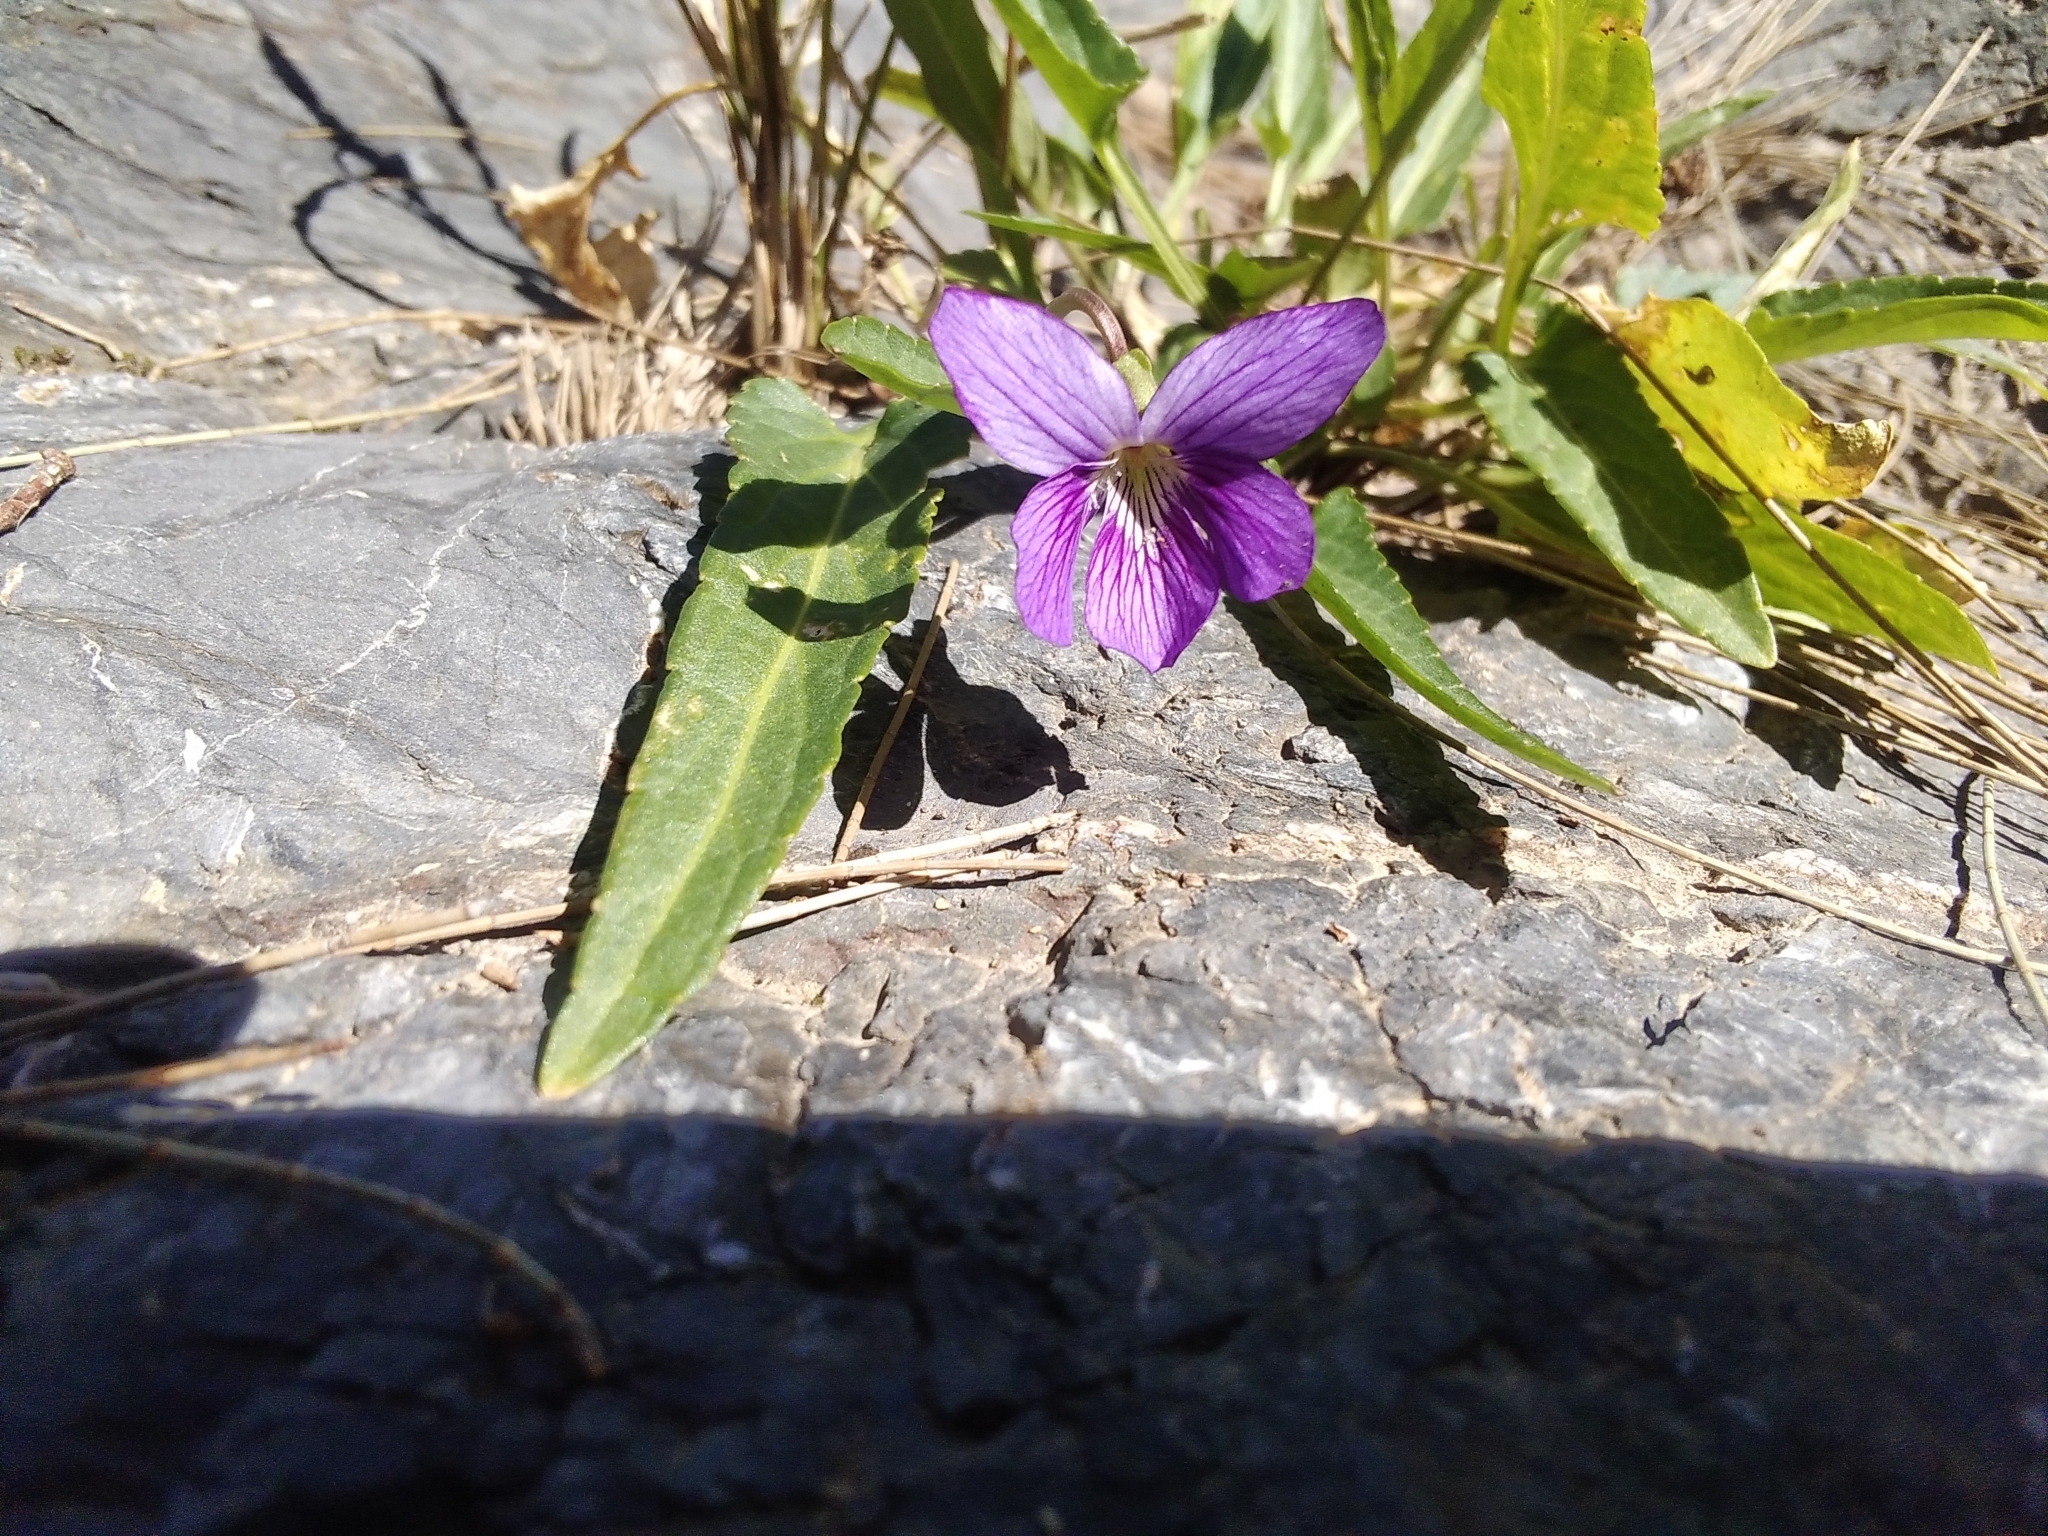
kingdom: Plantae
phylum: Tracheophyta
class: Magnoliopsida
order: Malpighiales
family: Violaceae
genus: Viola
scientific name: Viola betonicifolia
